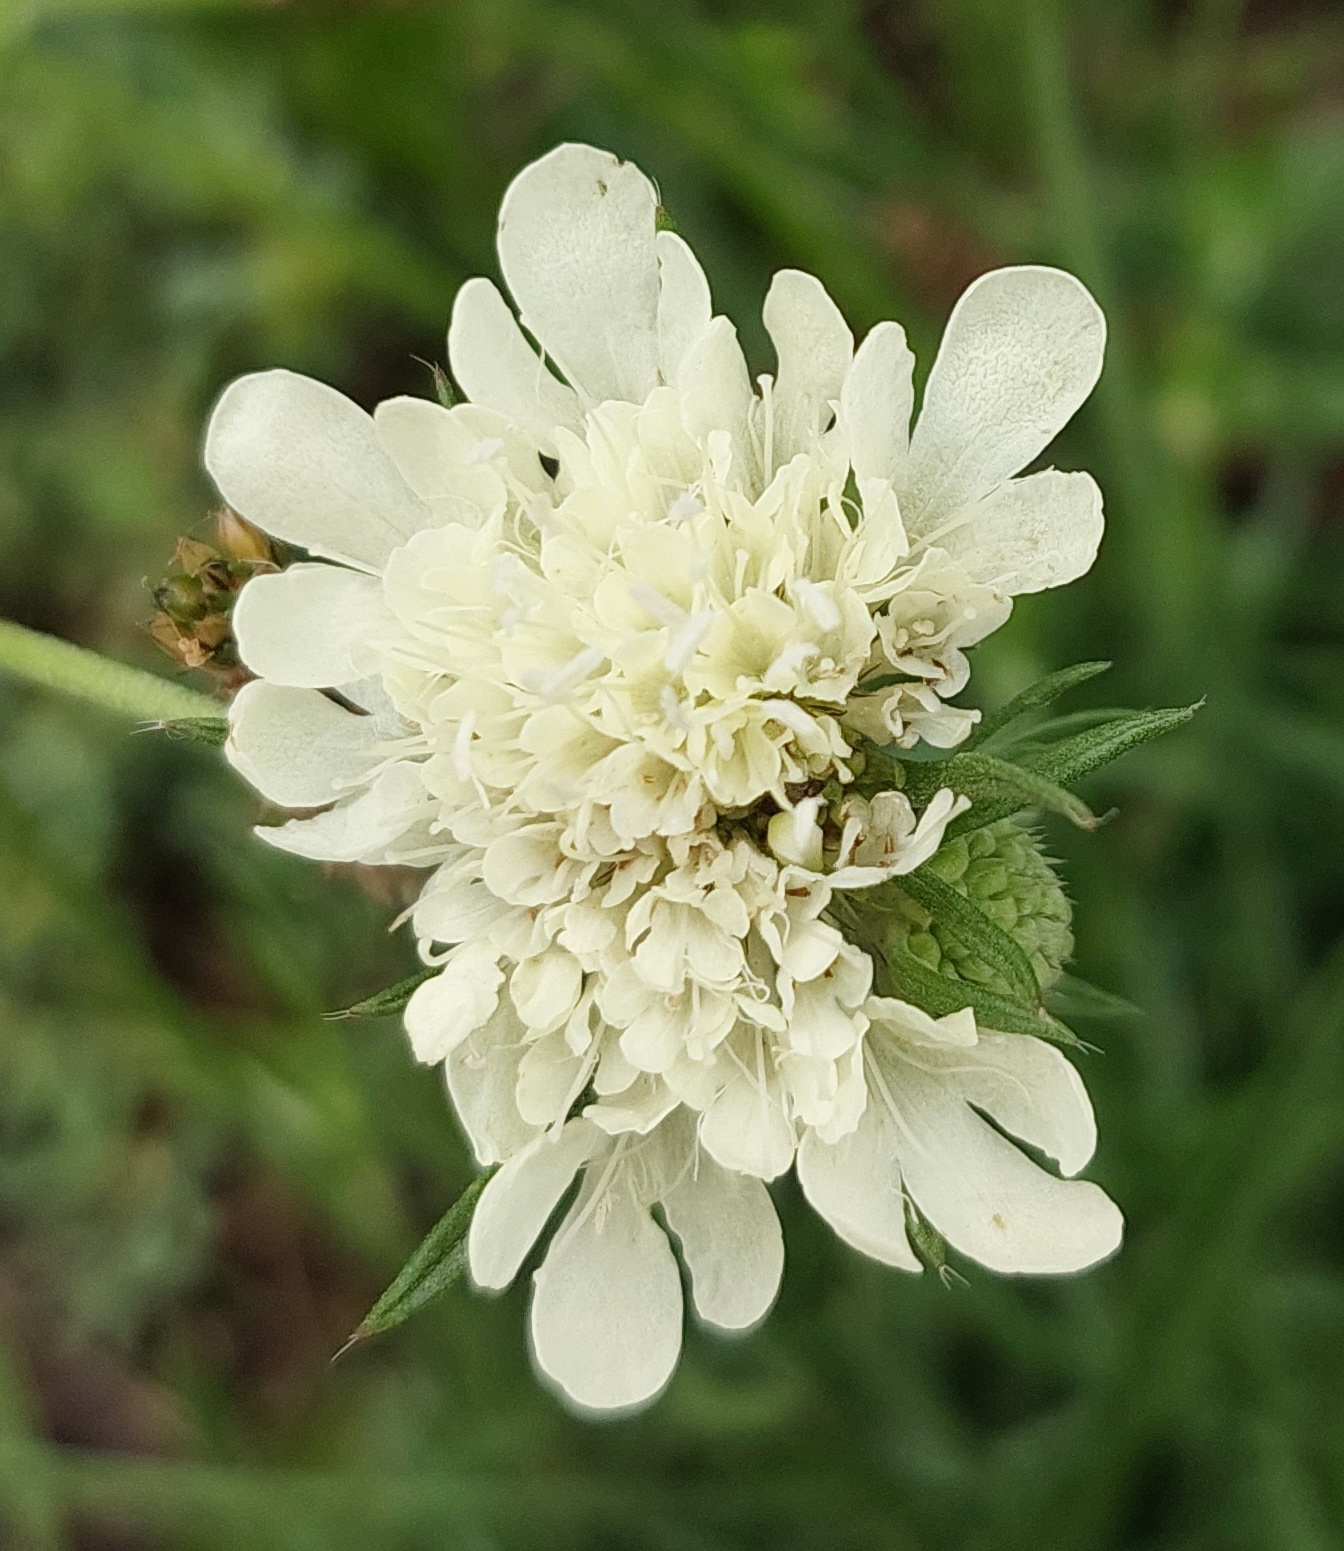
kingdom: Plantae
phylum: Tracheophyta
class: Magnoliopsida
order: Dipsacales
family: Caprifoliaceae
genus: Scabiosa
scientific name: Scabiosa ochroleuca
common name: Cream pincushions
